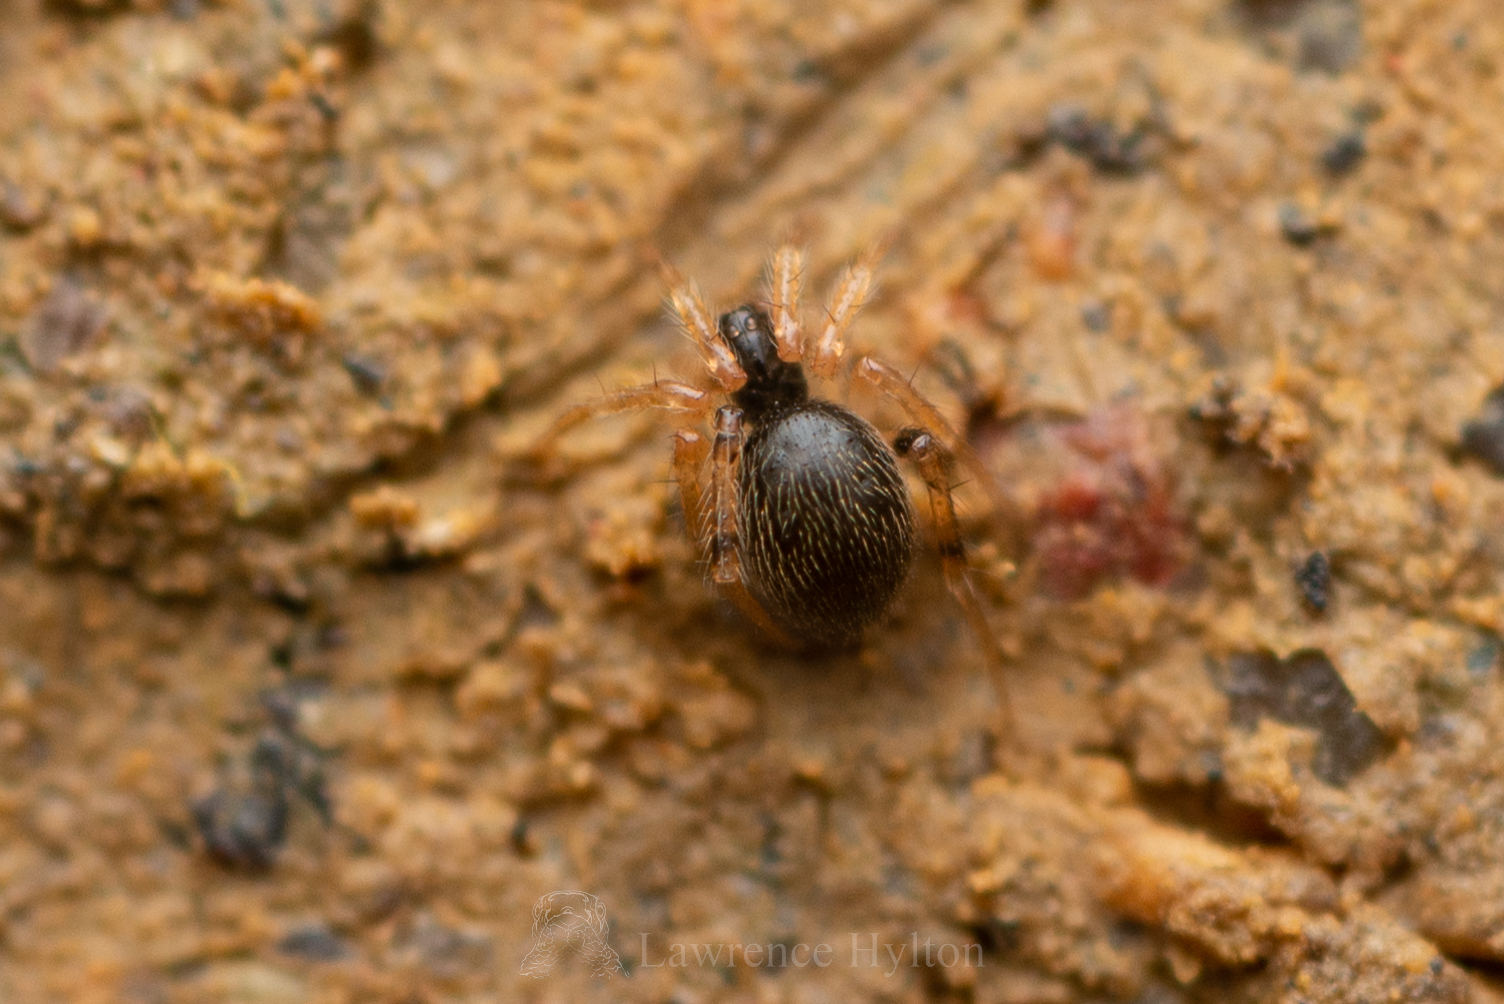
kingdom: Animalia
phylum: Arthropoda
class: Arachnida
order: Araneae
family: Theridiidae
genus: Phycosoma
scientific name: Phycosoma flavomarginatum
